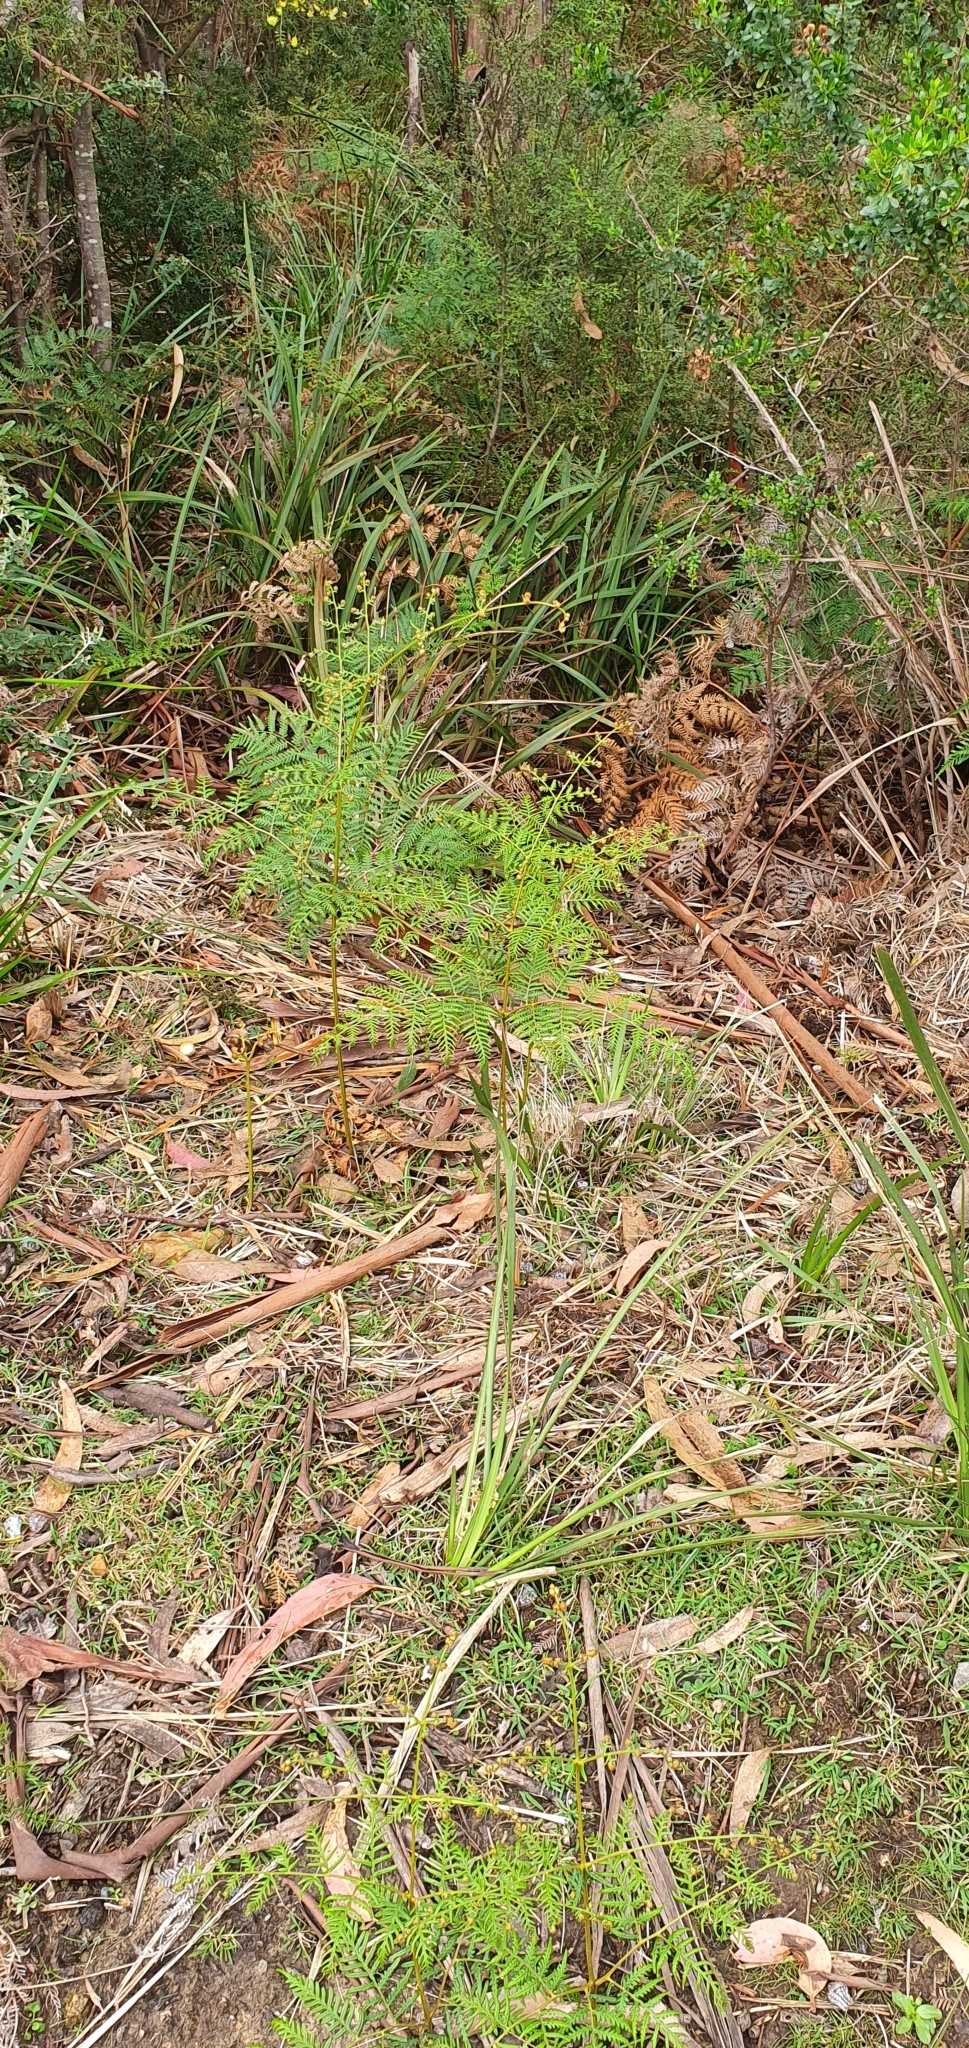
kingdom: Plantae
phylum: Tracheophyta
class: Polypodiopsida
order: Polypodiales
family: Dennstaedtiaceae
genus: Pteridium
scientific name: Pteridium esculentum
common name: Bracken fern
